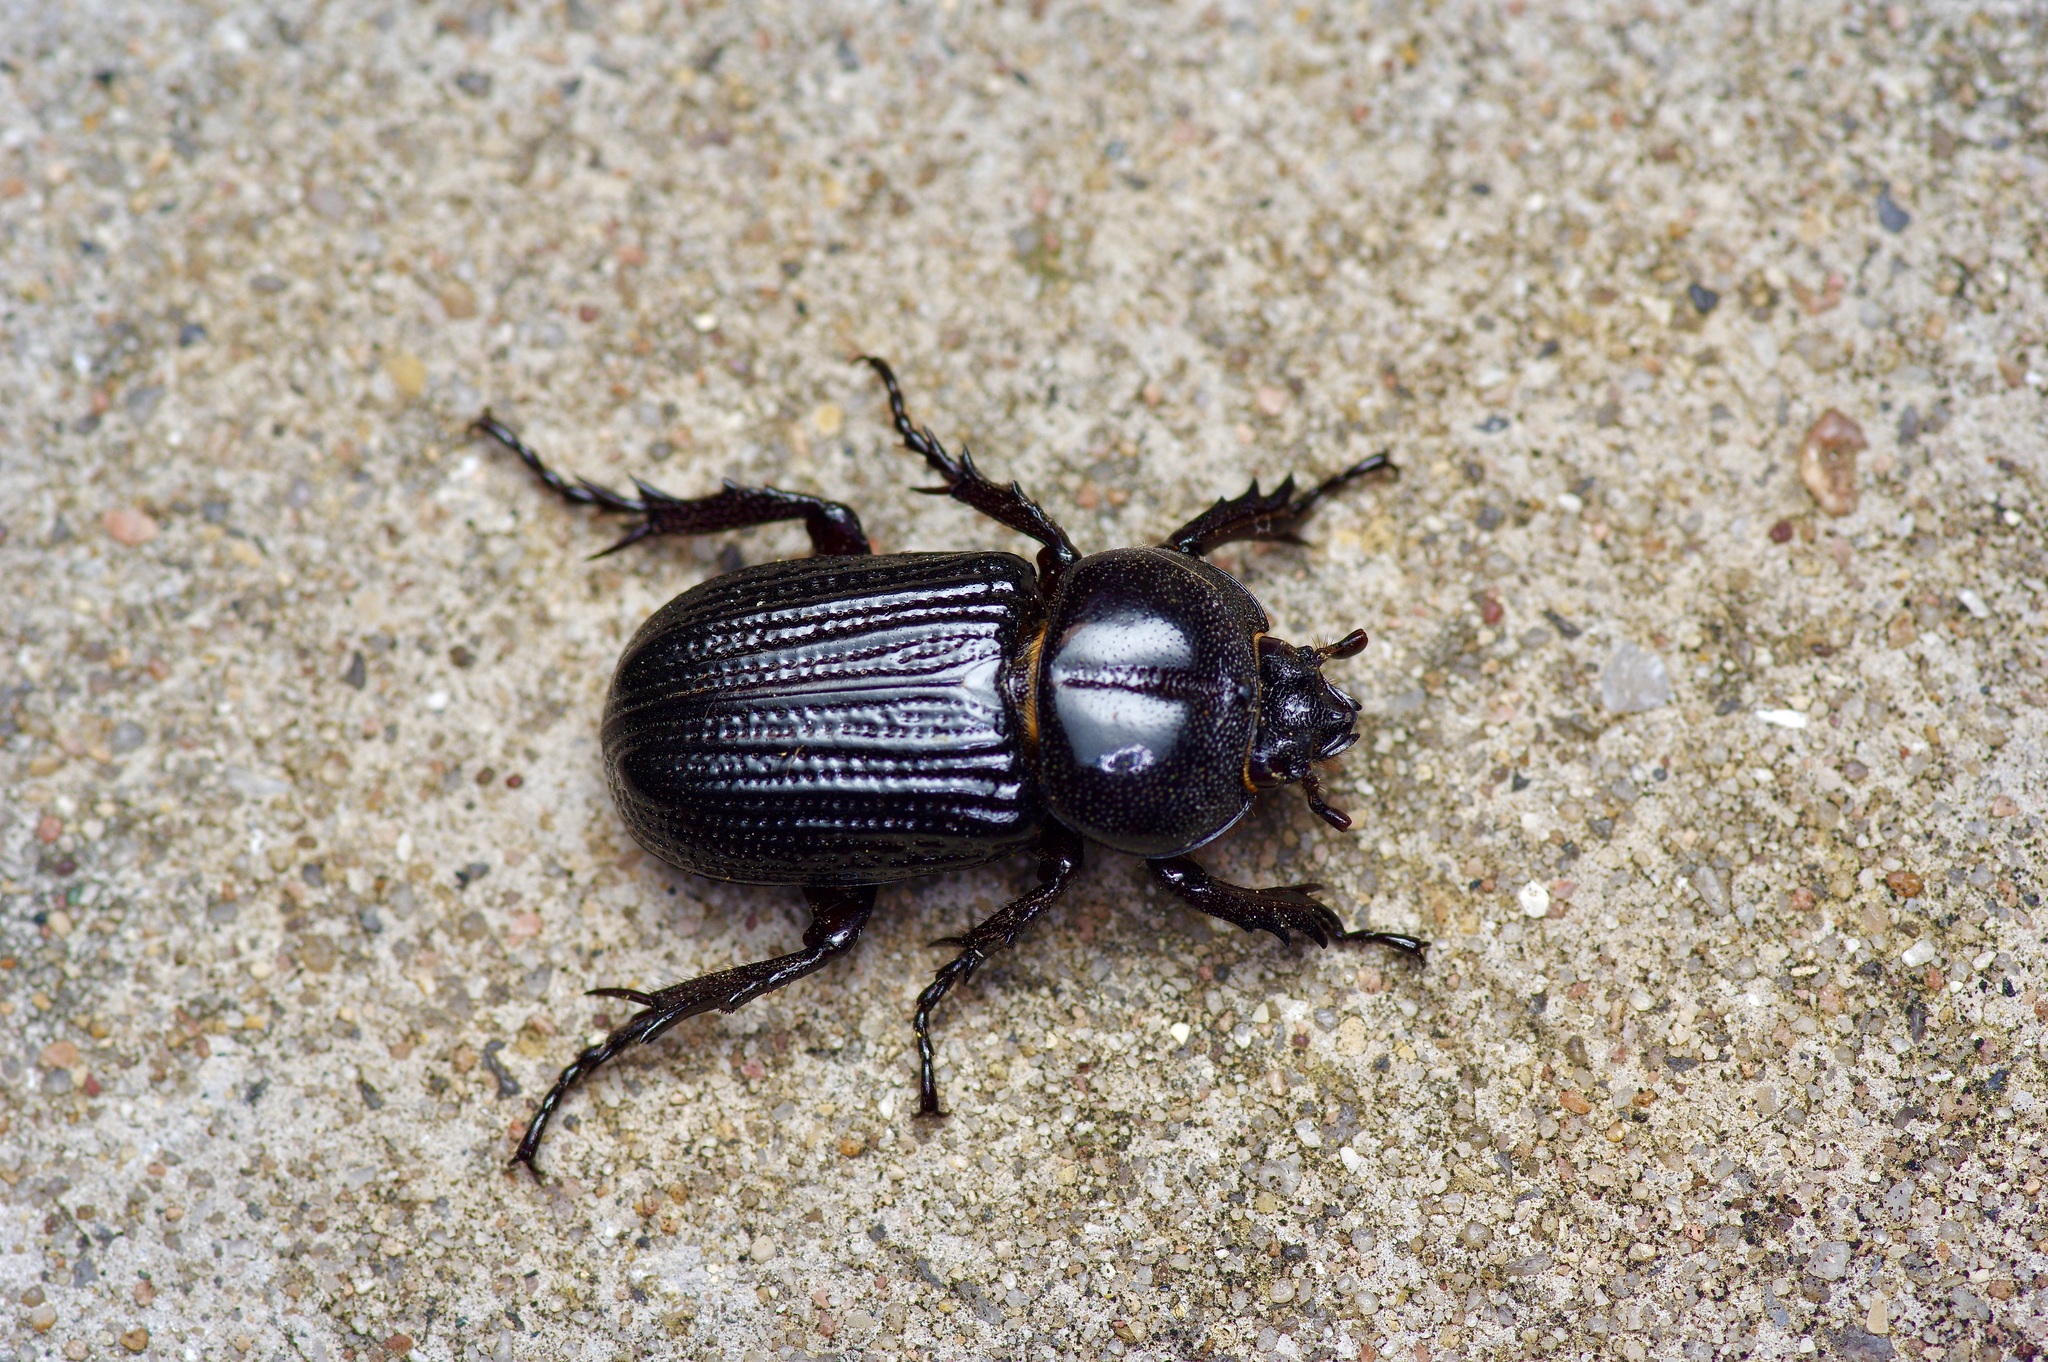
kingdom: Animalia
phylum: Arthropoda
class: Insecta
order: Coleoptera
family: Scarabaeidae
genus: Phileurus
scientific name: Phileurus valgus
